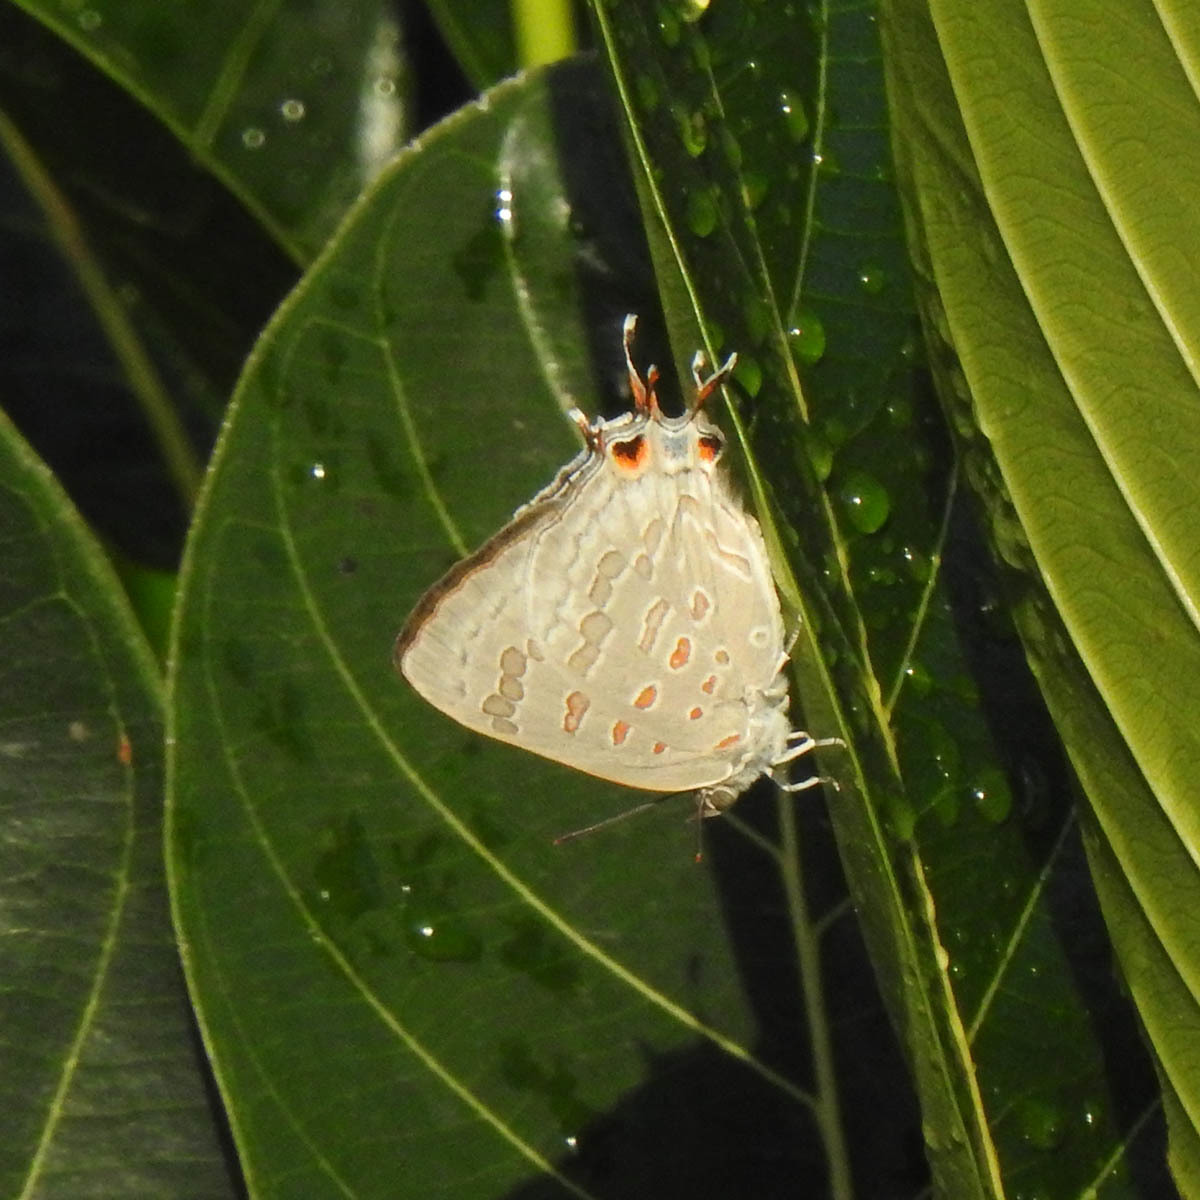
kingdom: Animalia
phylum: Arthropoda
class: Insecta
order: Lepidoptera
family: Lycaenidae
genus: Zesius
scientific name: Zesius chrysomallus
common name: Redspot
